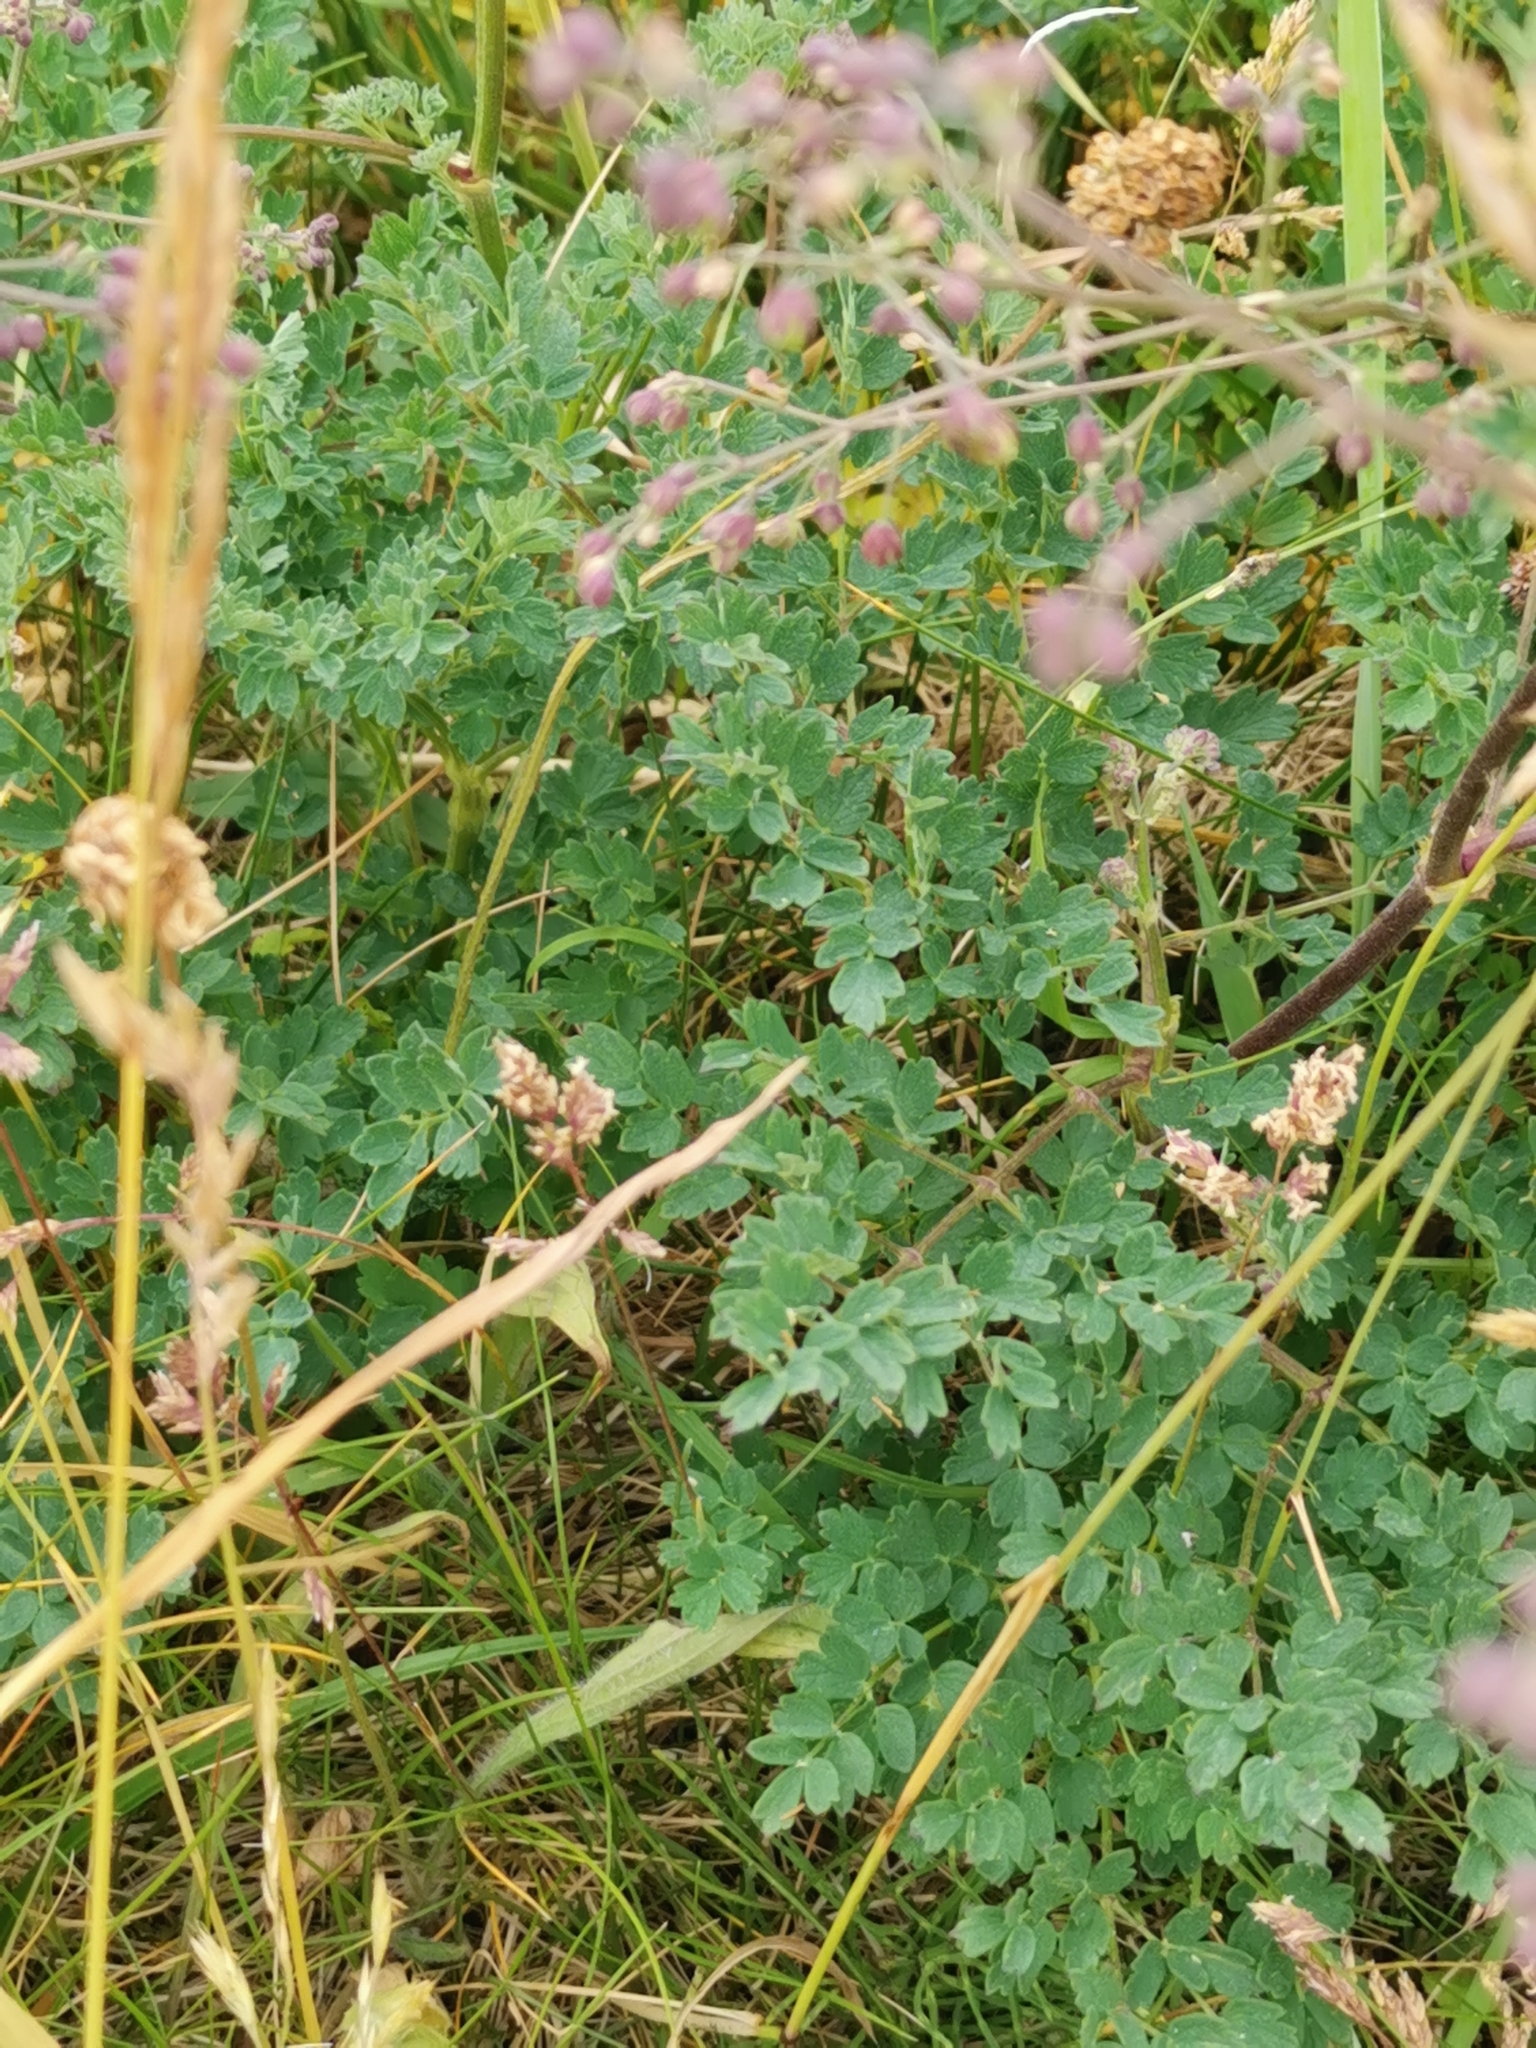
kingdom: Plantae
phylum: Tracheophyta
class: Magnoliopsida
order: Ranunculales
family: Ranunculaceae
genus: Thalictrum
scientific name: Thalictrum minus
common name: Lesser meadow-rue
